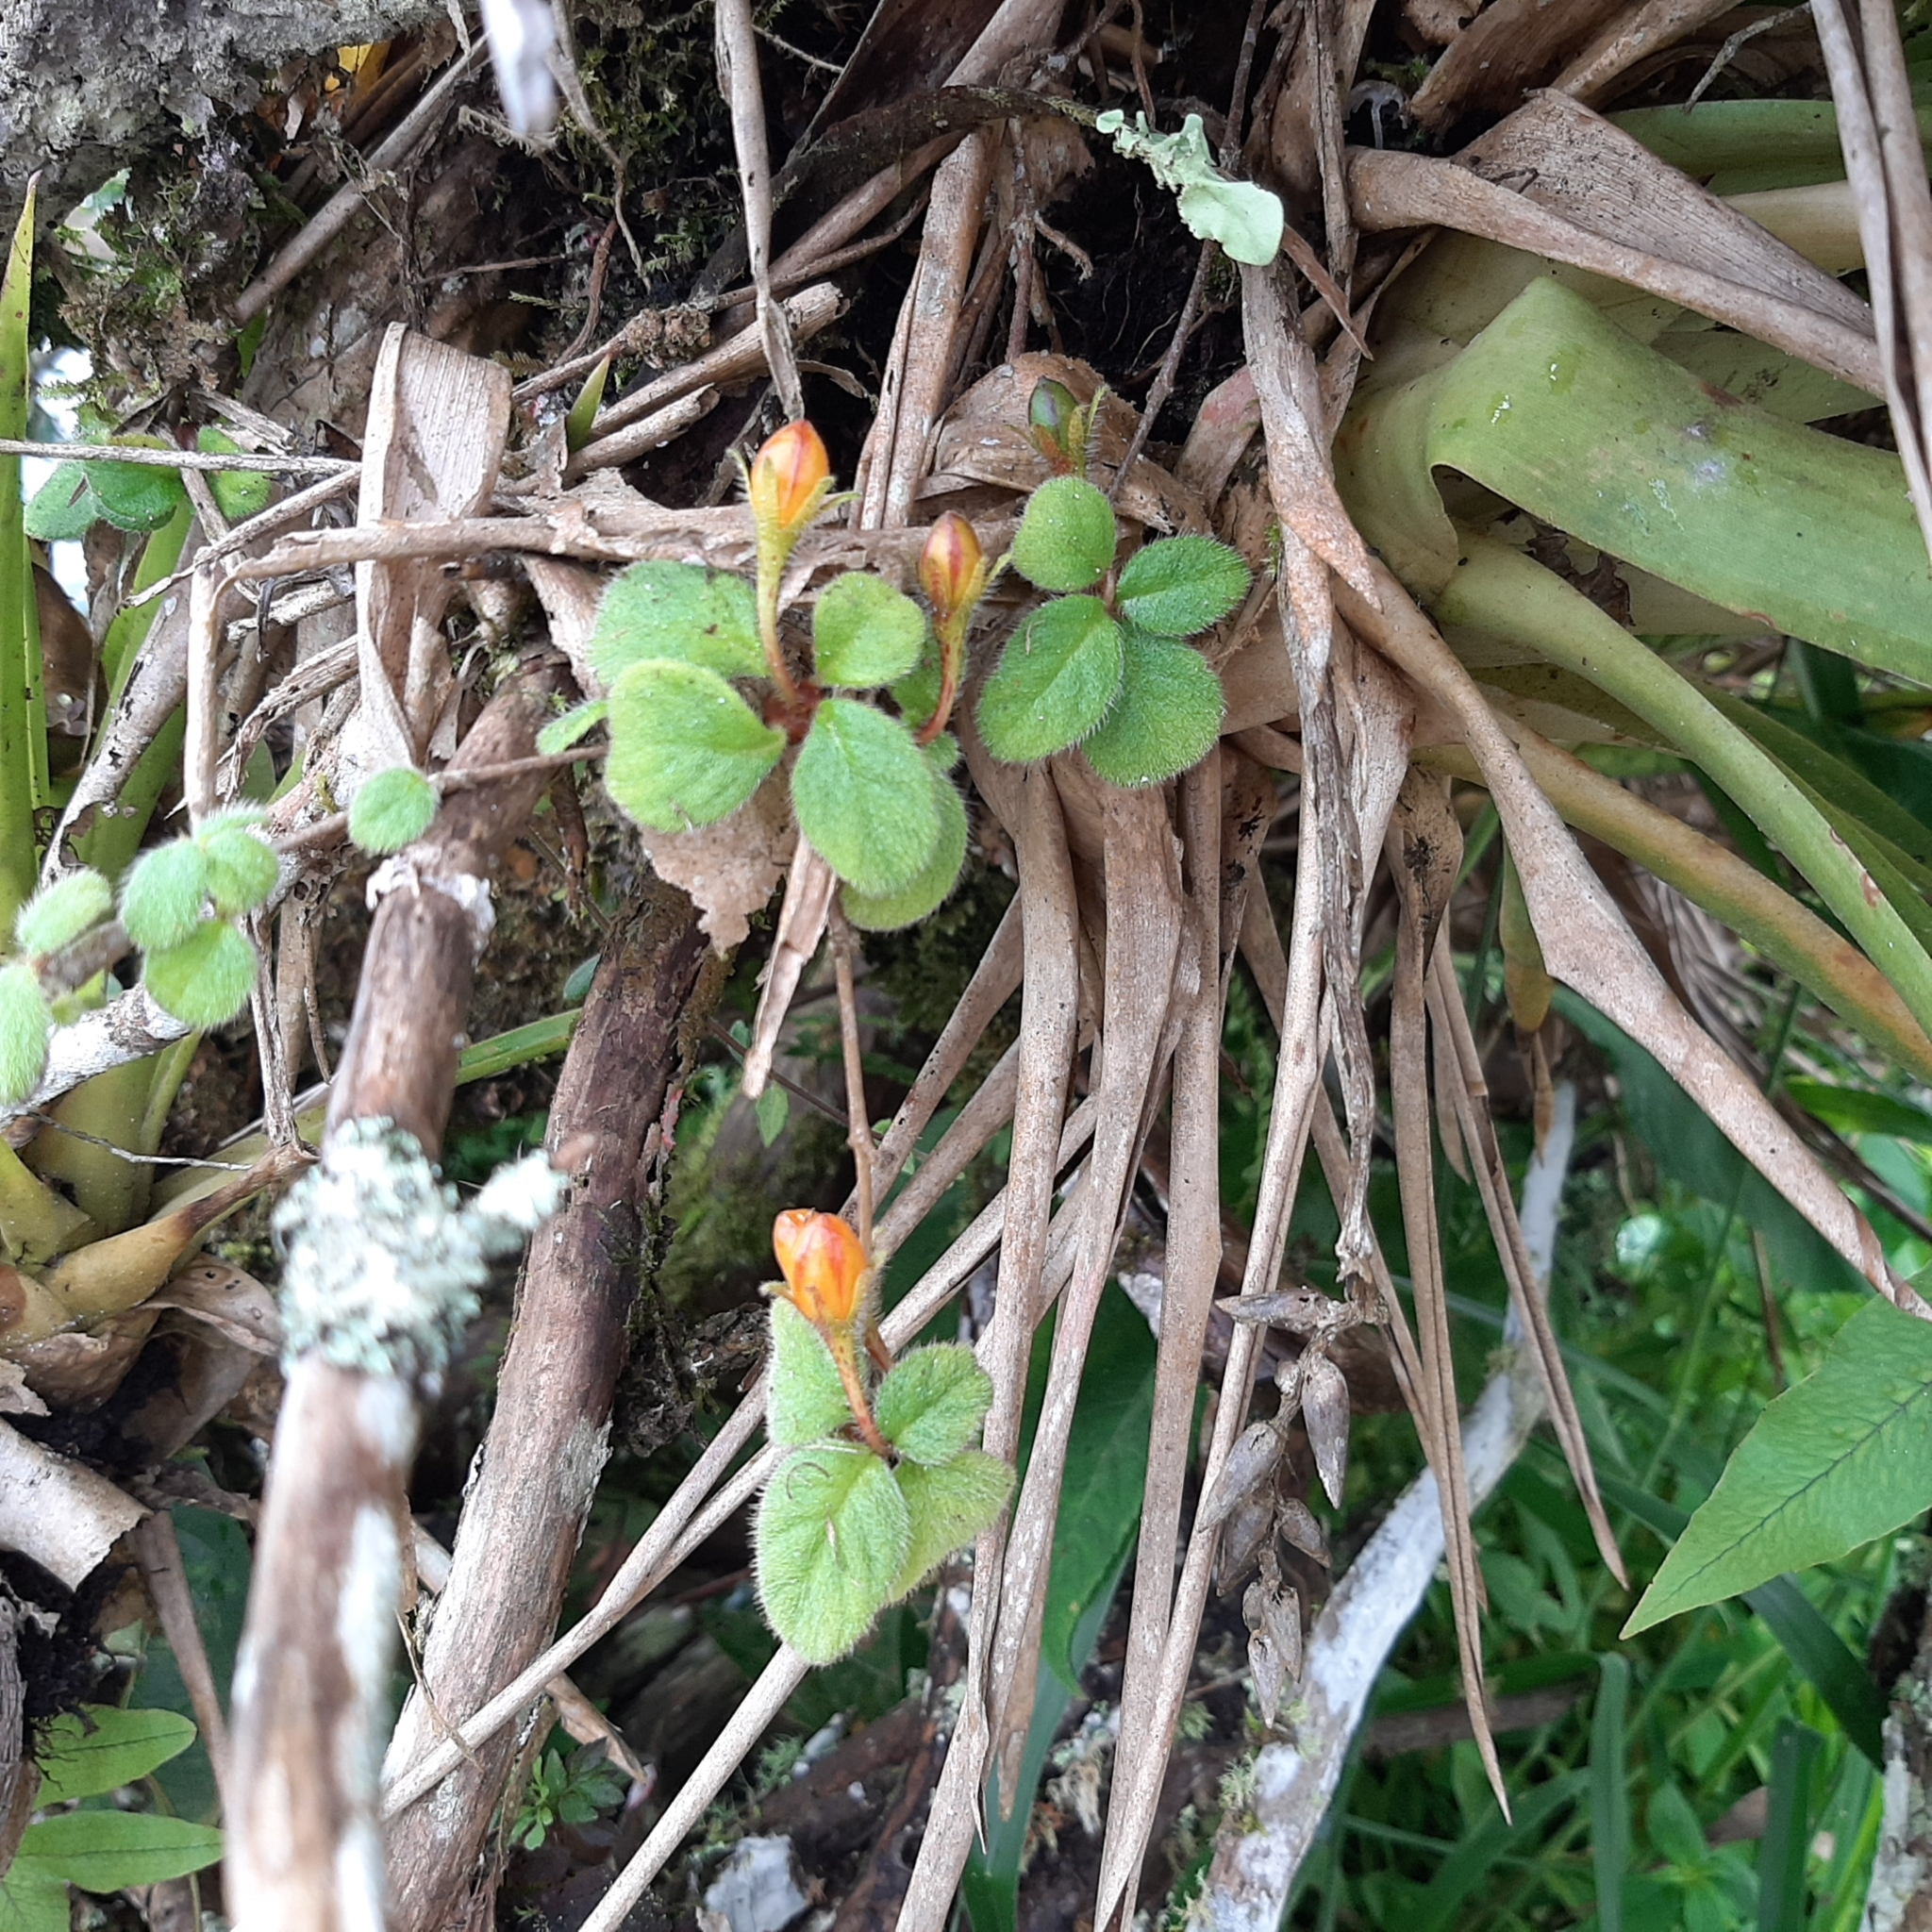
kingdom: Plantae
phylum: Tracheophyta
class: Magnoliopsida
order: Lamiales
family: Gesneriaceae
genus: Pachycaulos
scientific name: Pachycaulos nummularia
